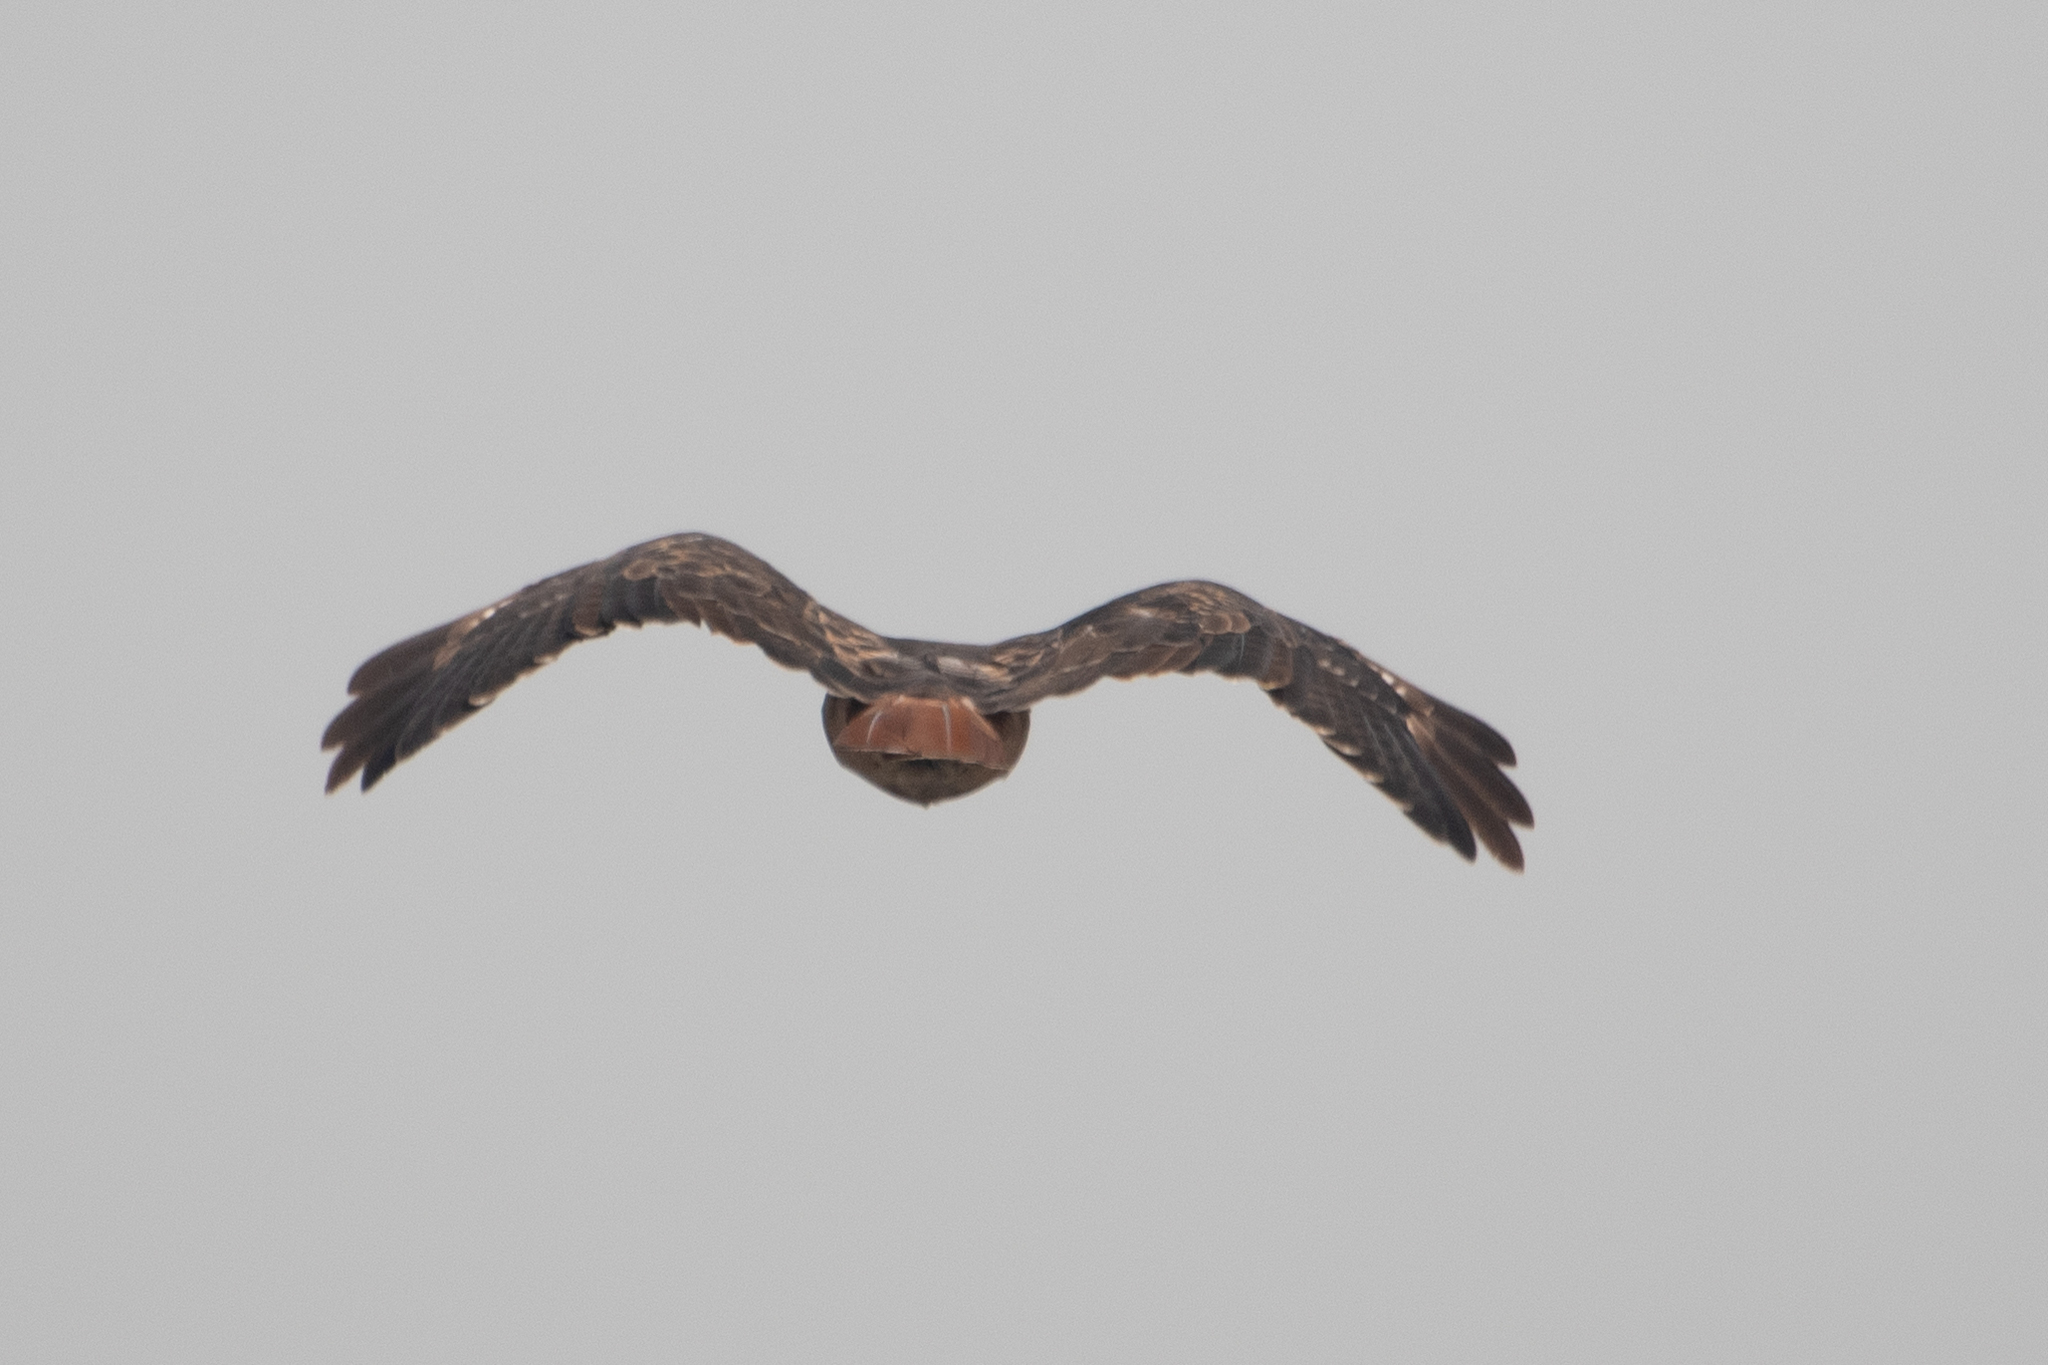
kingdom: Animalia
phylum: Chordata
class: Aves
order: Accipitriformes
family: Accipitridae
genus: Buteo
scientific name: Buteo jamaicensis
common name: Red-tailed hawk
